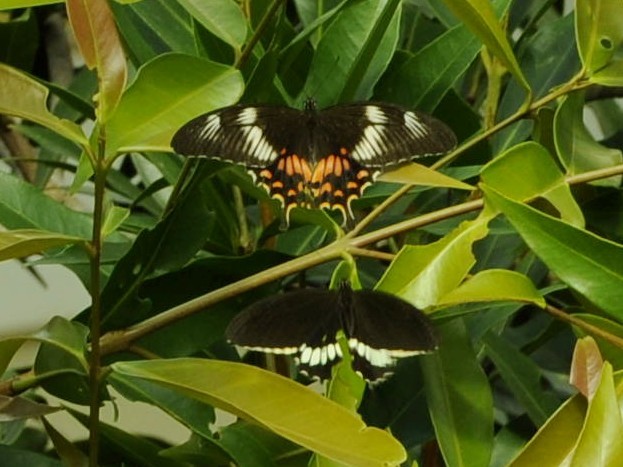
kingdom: Animalia
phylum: Arthropoda
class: Insecta
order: Lepidoptera
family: Papilionidae
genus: Papilio
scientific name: Papilio polytes
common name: Common mormon
